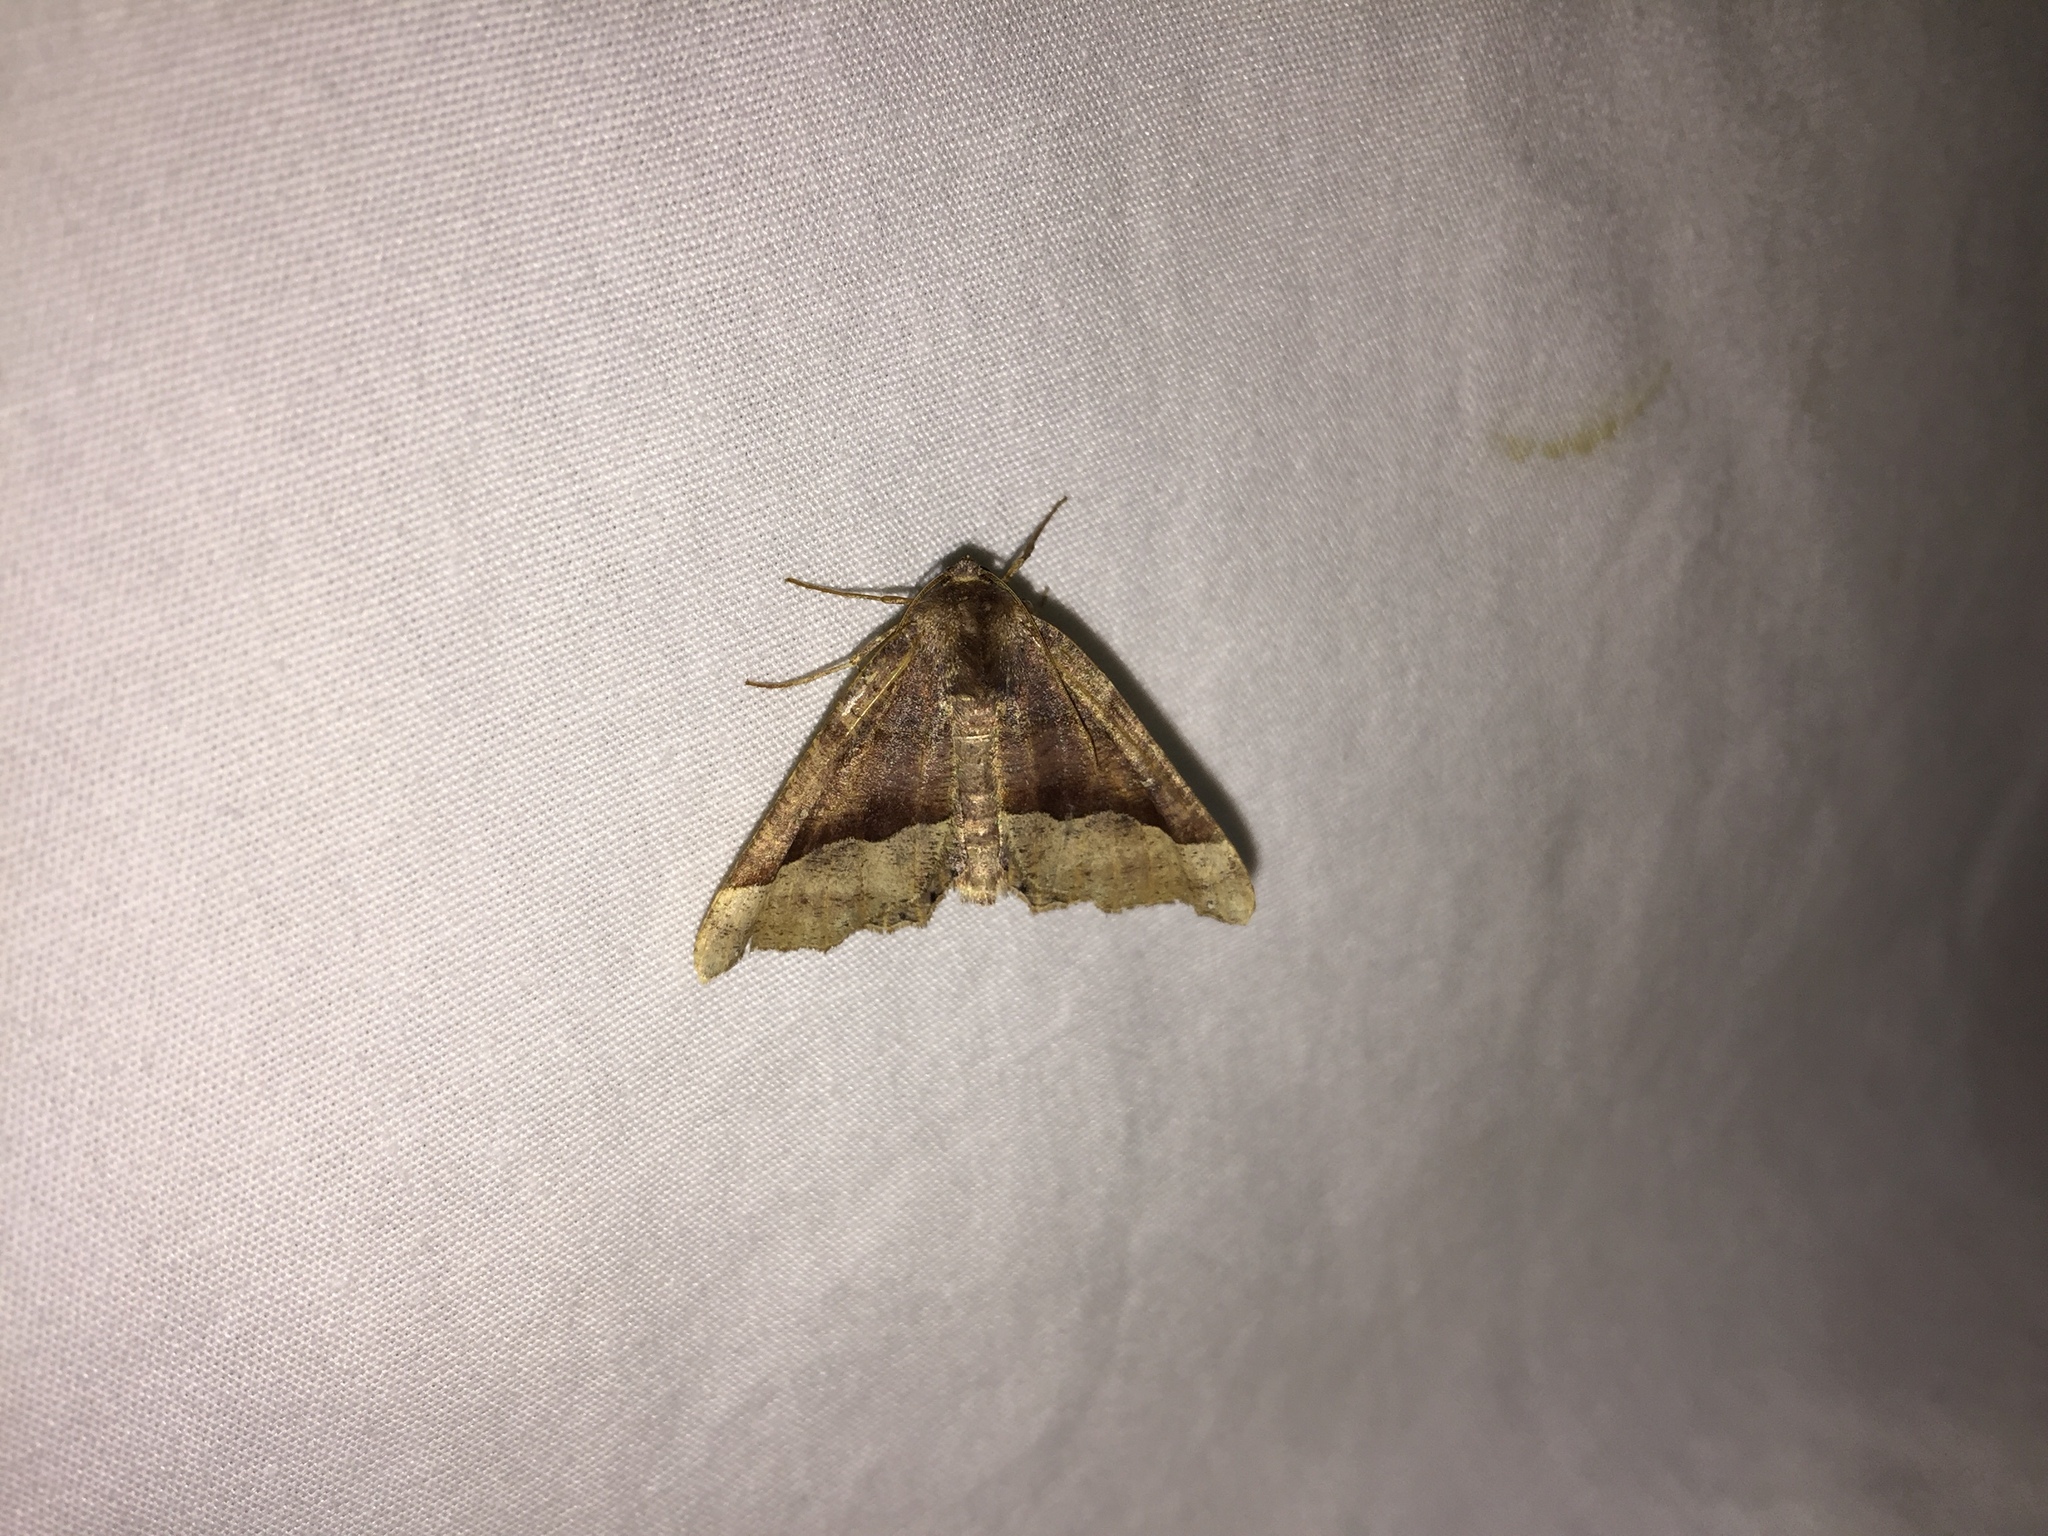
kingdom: Animalia
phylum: Arthropoda
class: Insecta
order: Lepidoptera
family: Geometridae
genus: Pero
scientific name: Pero honestaria
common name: Honest pero
